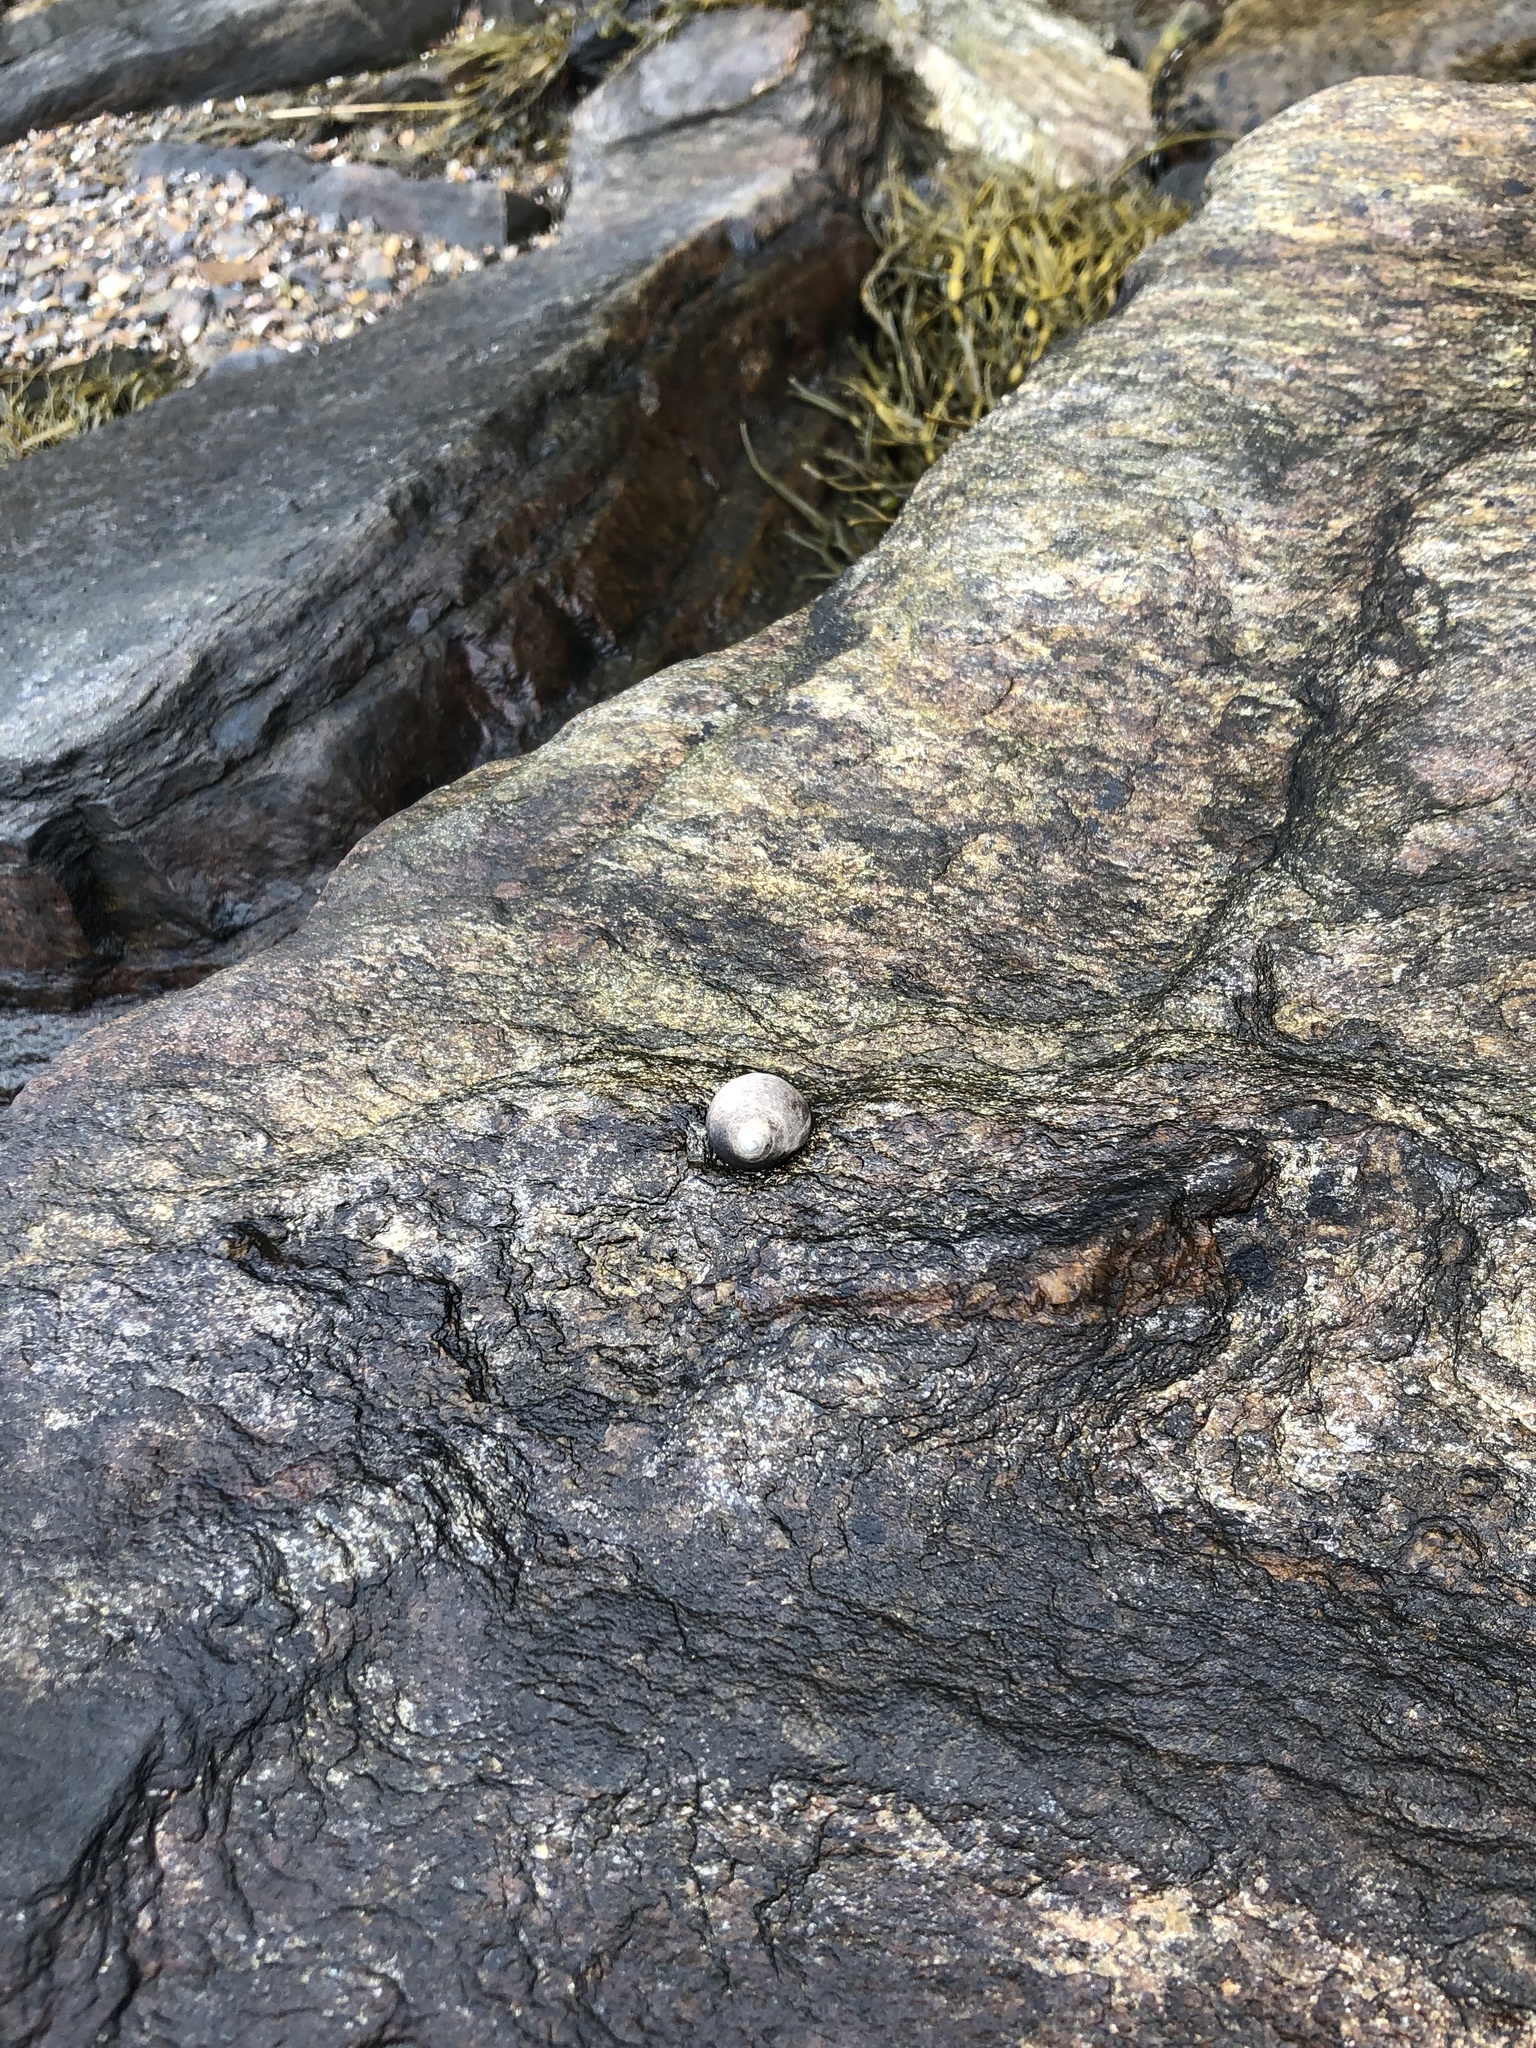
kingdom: Animalia
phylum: Mollusca
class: Gastropoda
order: Littorinimorpha
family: Littorinidae
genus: Littorina
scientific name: Littorina littorea
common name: Common periwinkle
